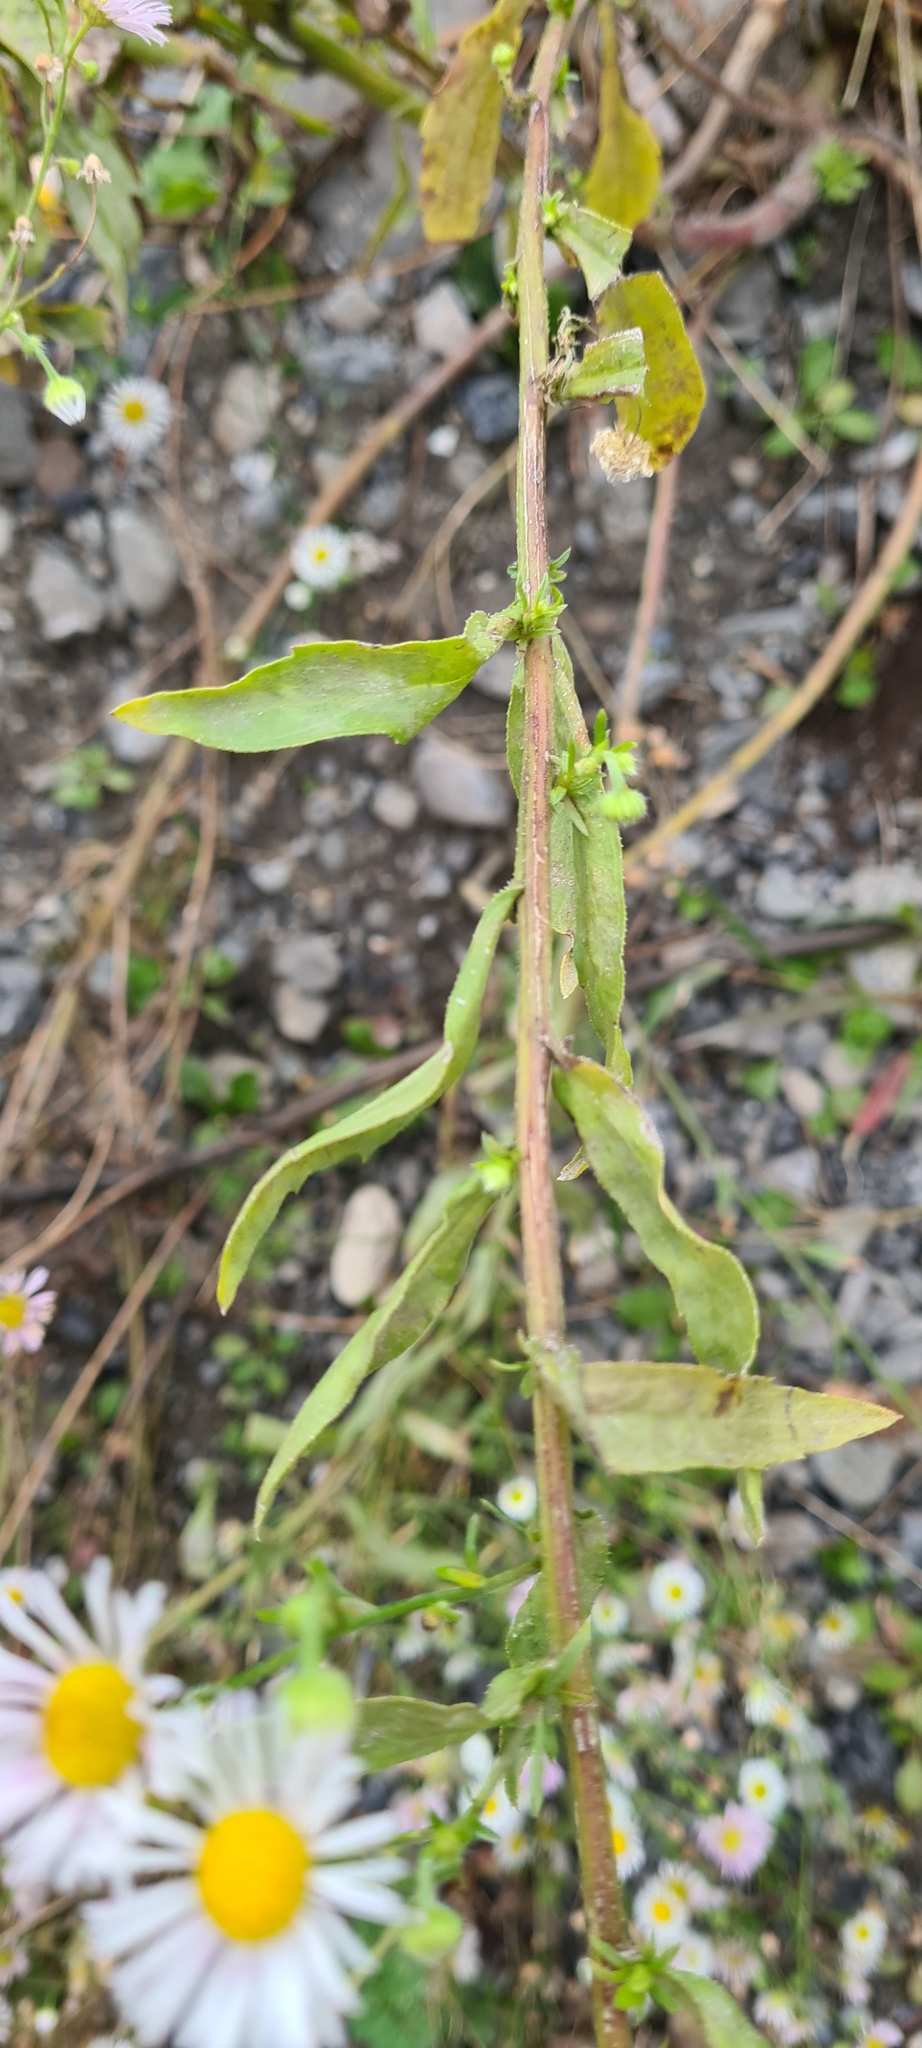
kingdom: Plantae
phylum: Tracheophyta
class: Magnoliopsida
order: Asterales
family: Asteraceae
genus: Erigeron
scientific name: Erigeron annuus
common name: Tall fleabane
